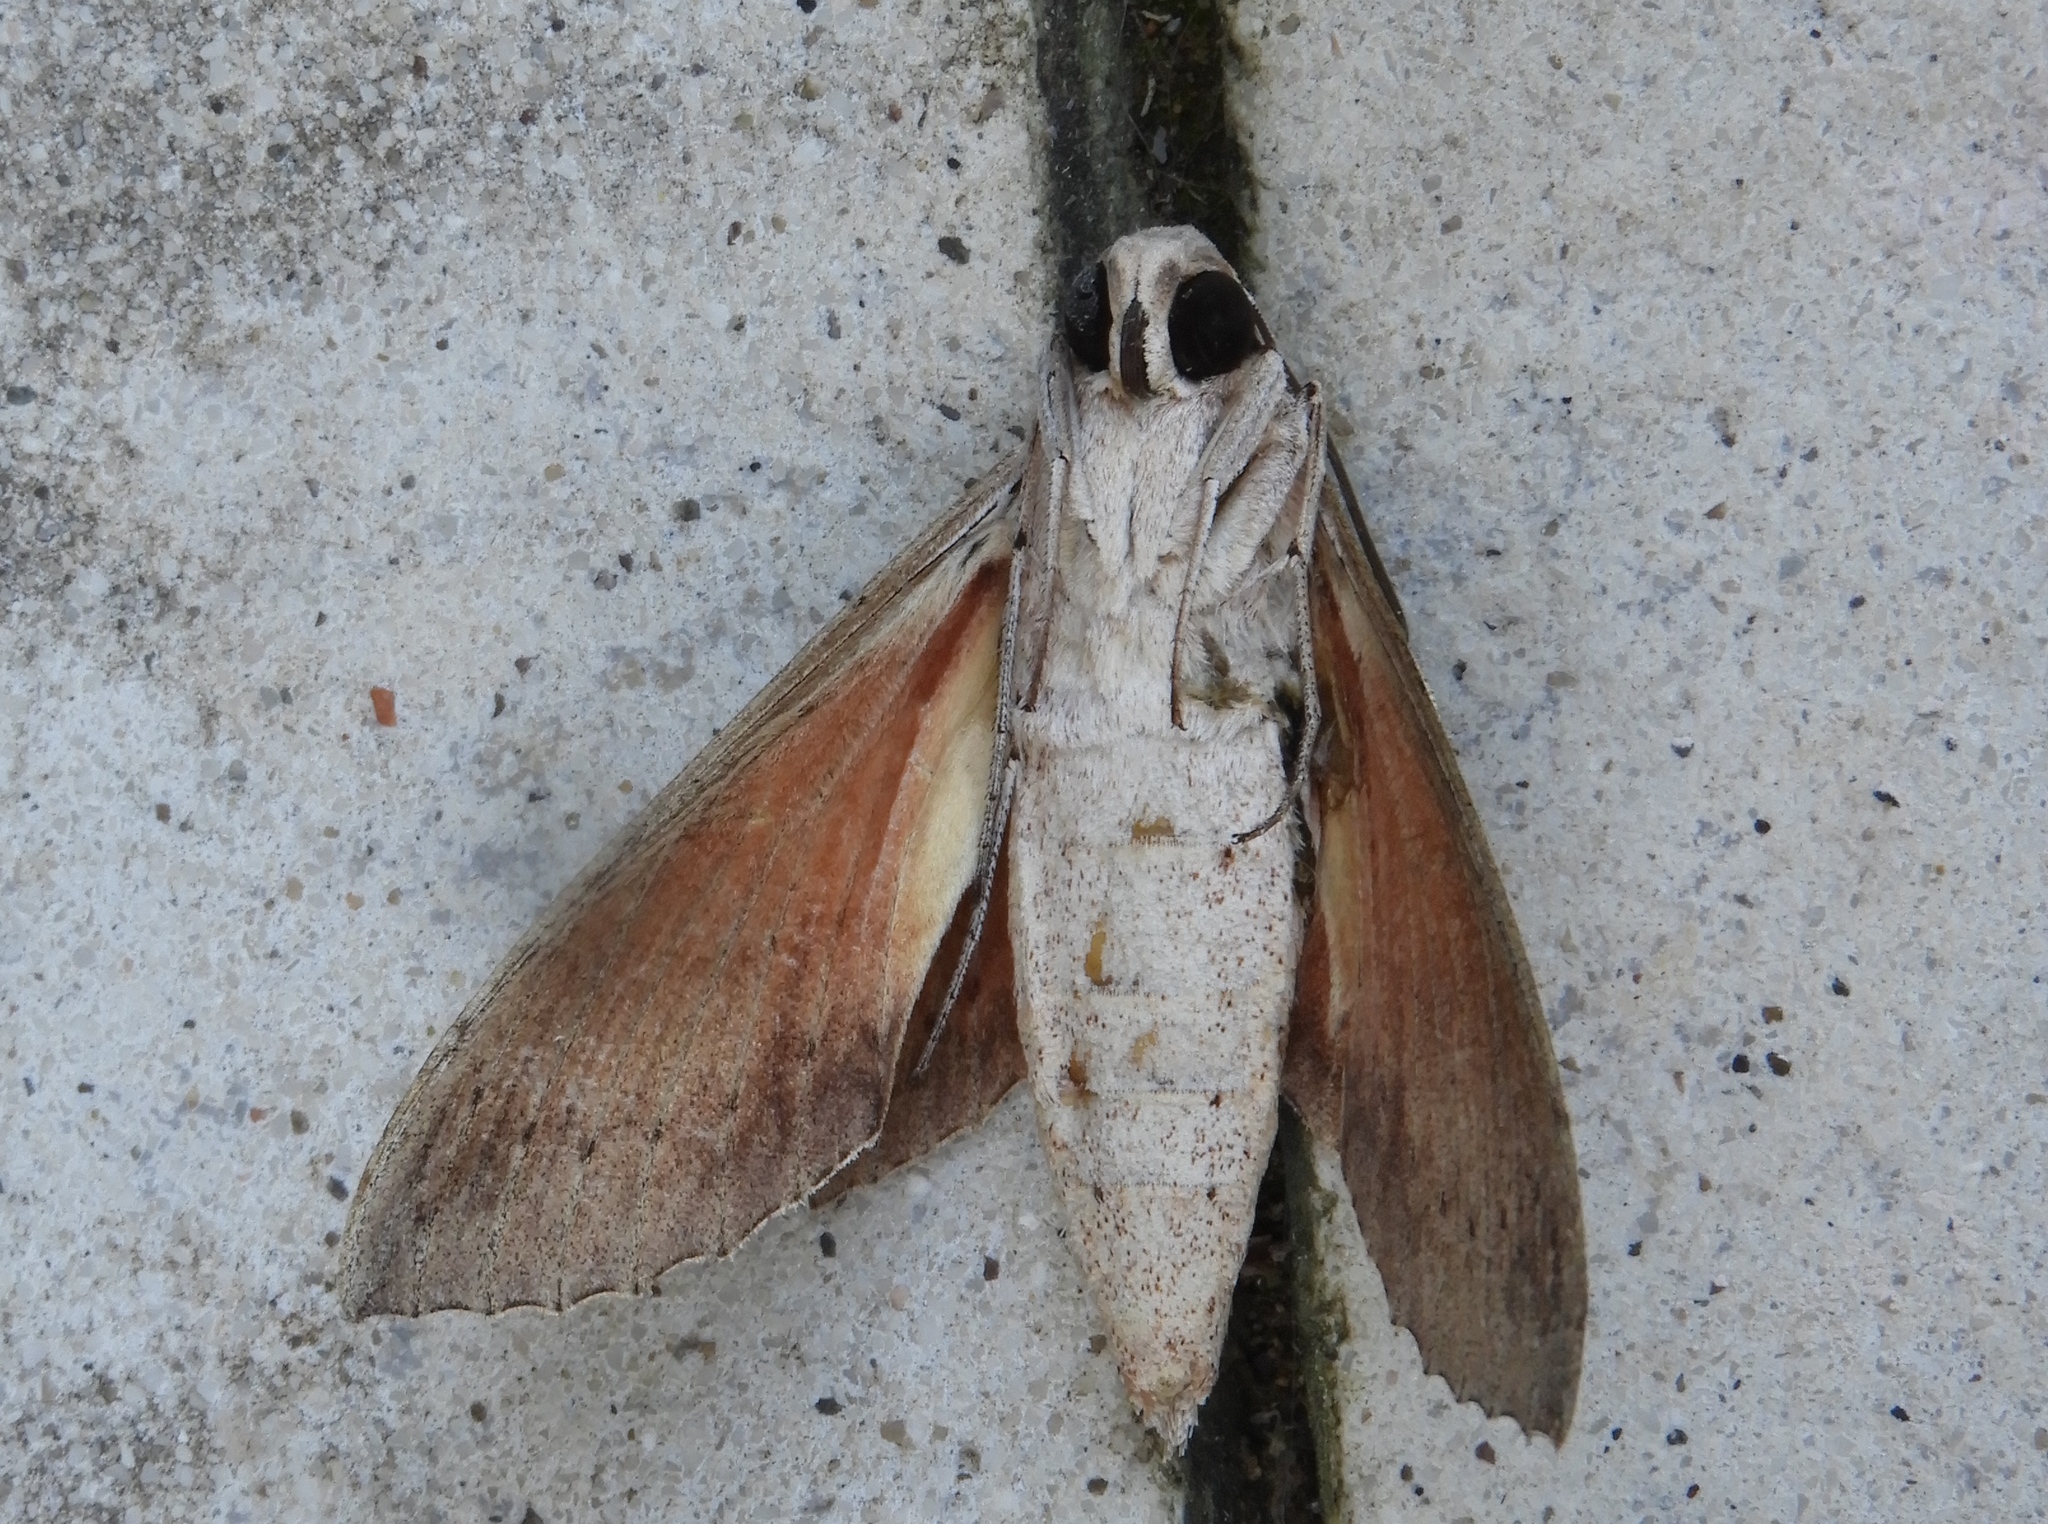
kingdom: Animalia
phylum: Arthropoda
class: Insecta
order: Lepidoptera
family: Sphingidae
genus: Erinnyis
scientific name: Erinnyis ello
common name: Ello sphinx
